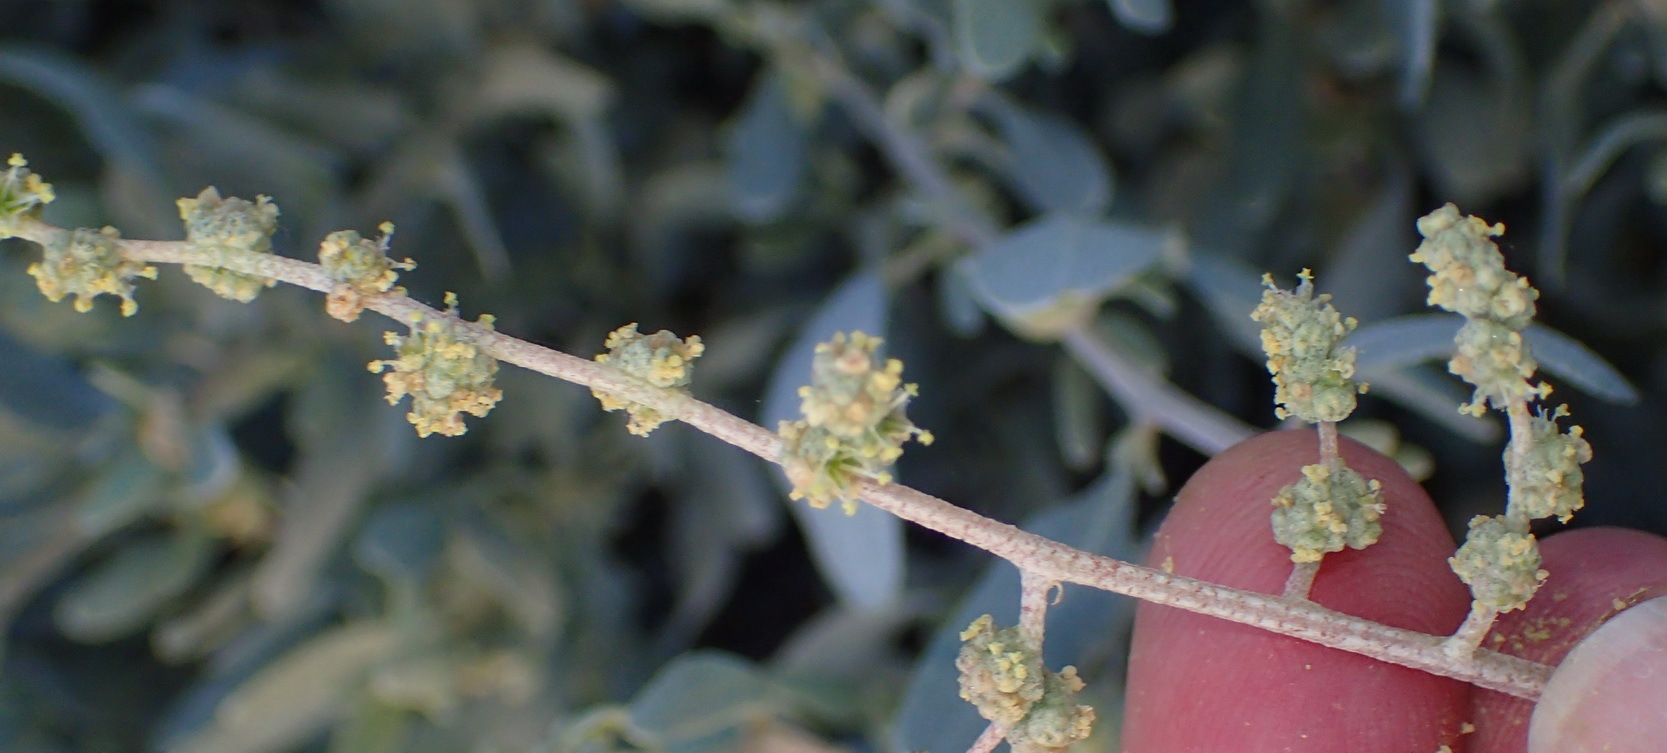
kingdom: Plantae
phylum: Tracheophyta
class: Magnoliopsida
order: Caryophyllales
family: Amaranthaceae
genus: Exomis
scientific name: Exomis albicans
